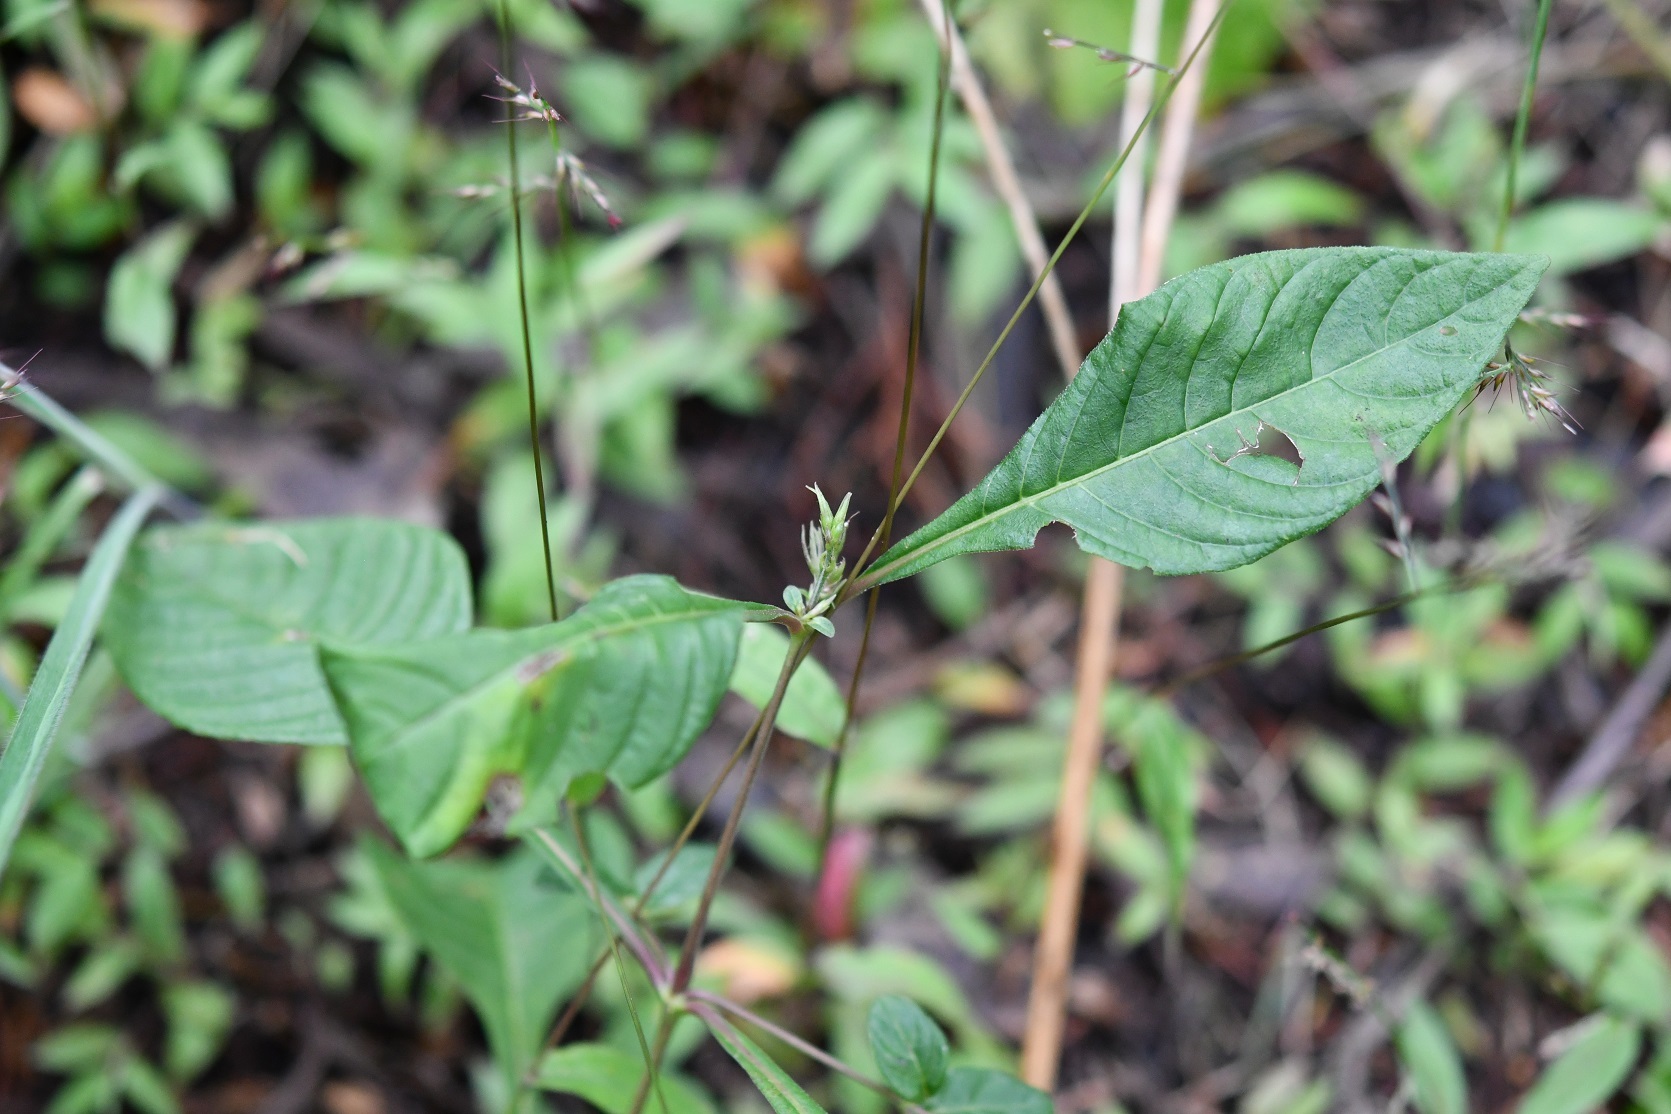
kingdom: Plantae
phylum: Tracheophyta
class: Magnoliopsida
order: Lamiales
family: Acanthaceae
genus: Pseuderanthemum
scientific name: Pseuderanthemum praecox
